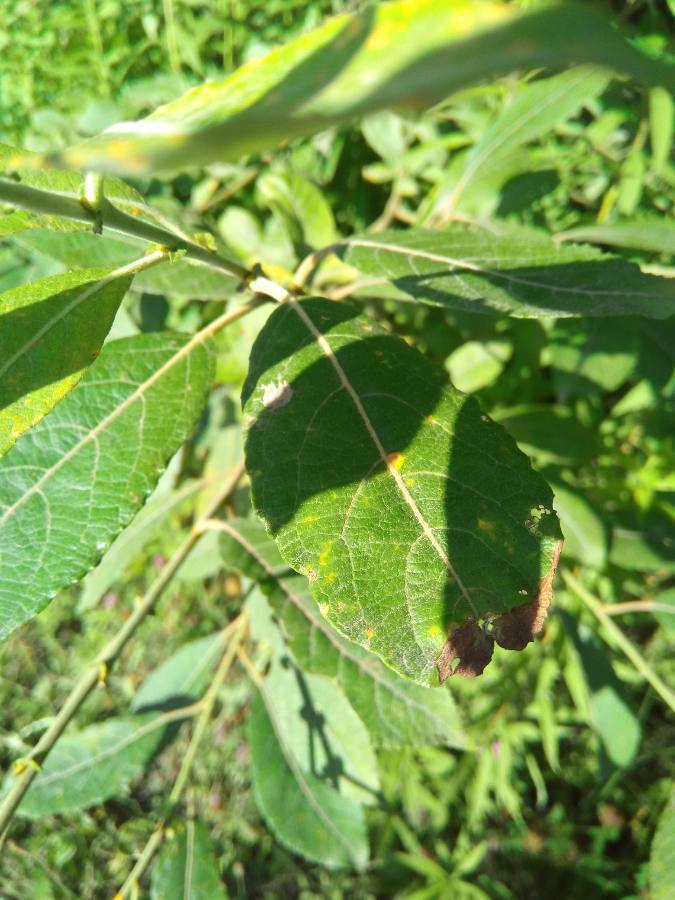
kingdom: Plantae
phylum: Tracheophyta
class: Magnoliopsida
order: Malpighiales
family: Salicaceae
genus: Salix
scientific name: Salix caprea
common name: Goat willow
